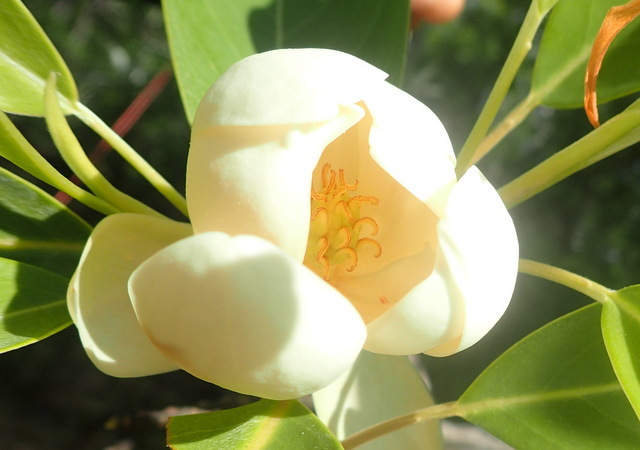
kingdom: Plantae
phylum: Tracheophyta
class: Magnoliopsida
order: Magnoliales
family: Magnoliaceae
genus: Magnolia
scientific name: Magnolia virginiana
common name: Swamp bay
